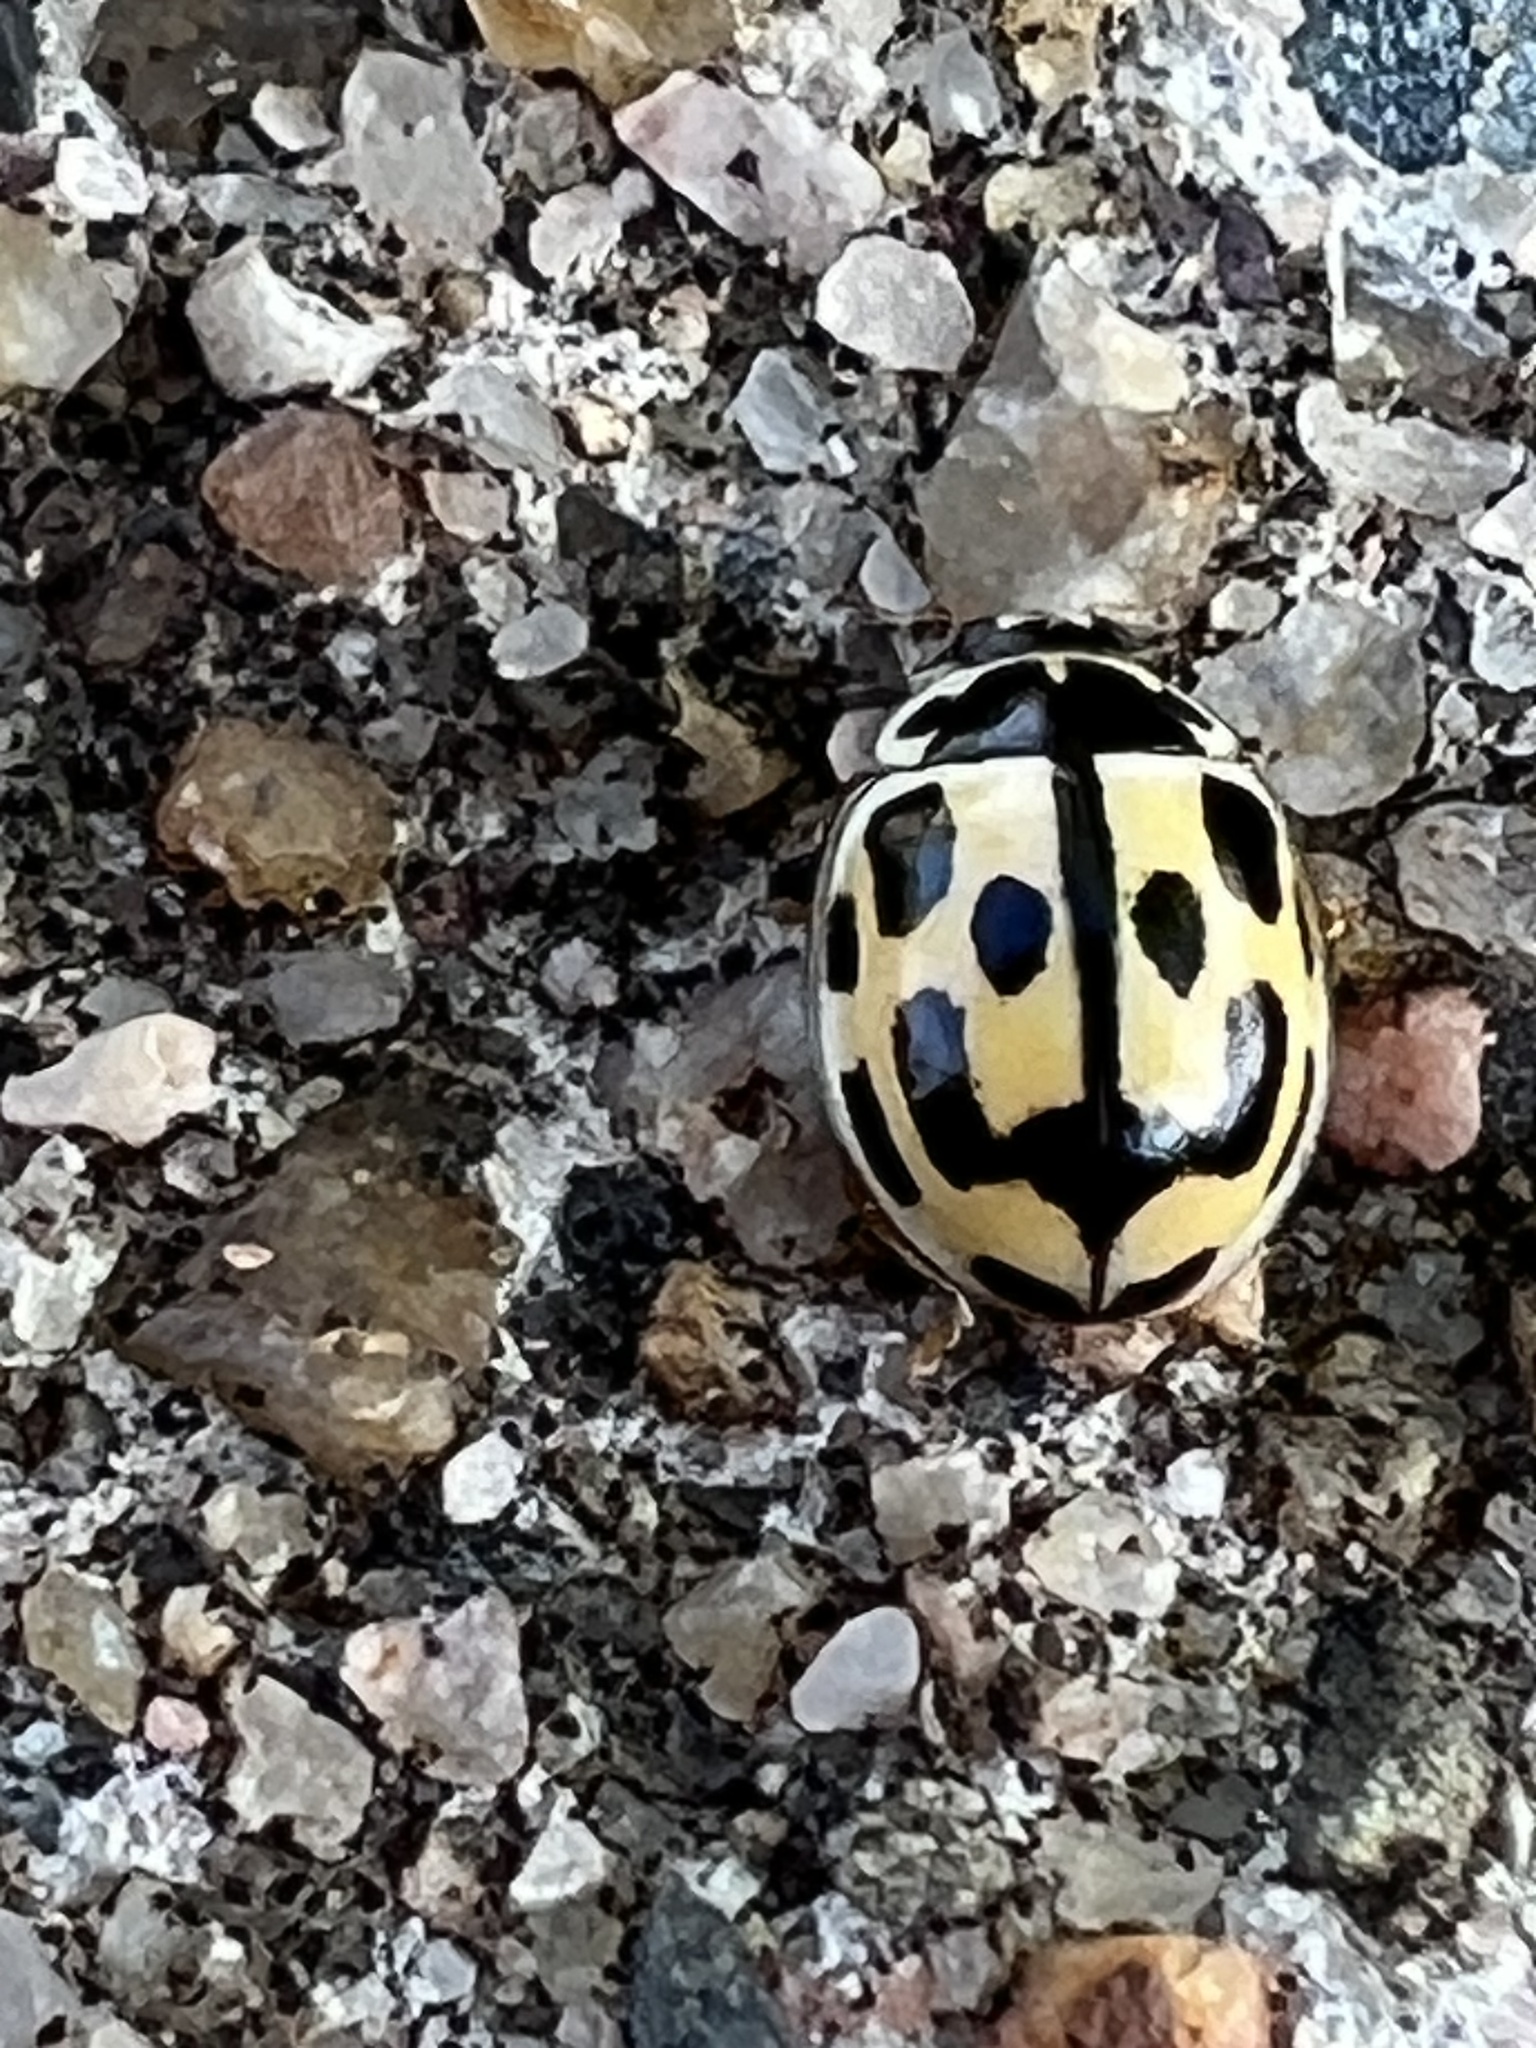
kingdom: Animalia
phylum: Arthropoda
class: Insecta
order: Coleoptera
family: Coccinellidae
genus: Propylaea
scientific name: Propylaea quatuordecimpunctata
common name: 14-spotted ladybird beetle
